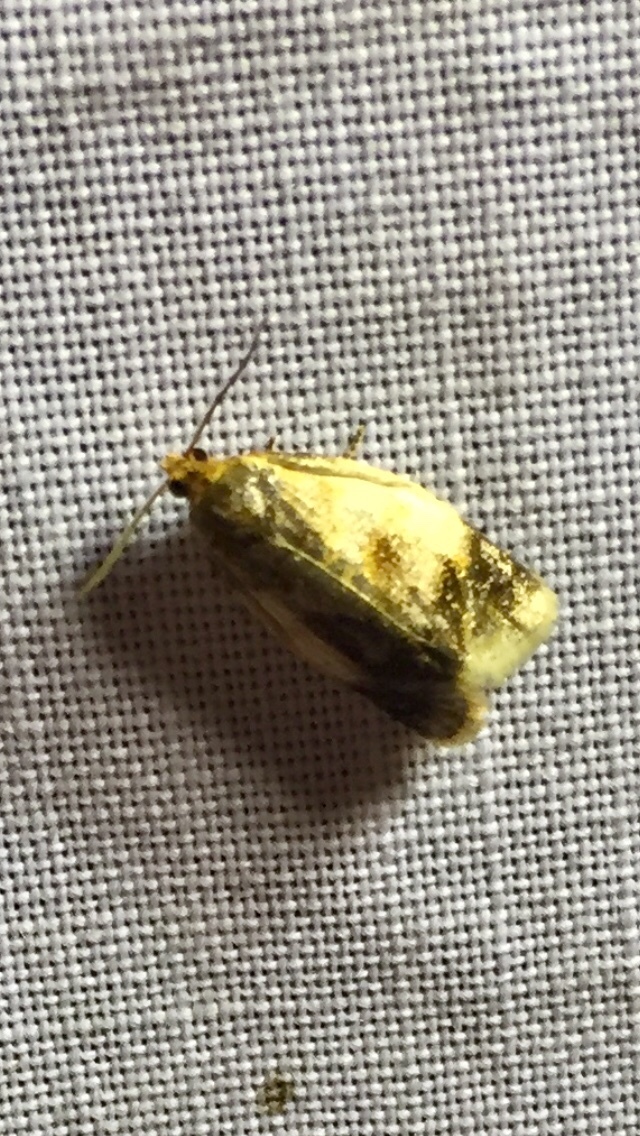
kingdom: Animalia
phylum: Arthropoda
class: Insecta
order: Lepidoptera
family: Tortricidae
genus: Clepsis
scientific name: Clepsis melaleucanus
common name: American apple tortrix
